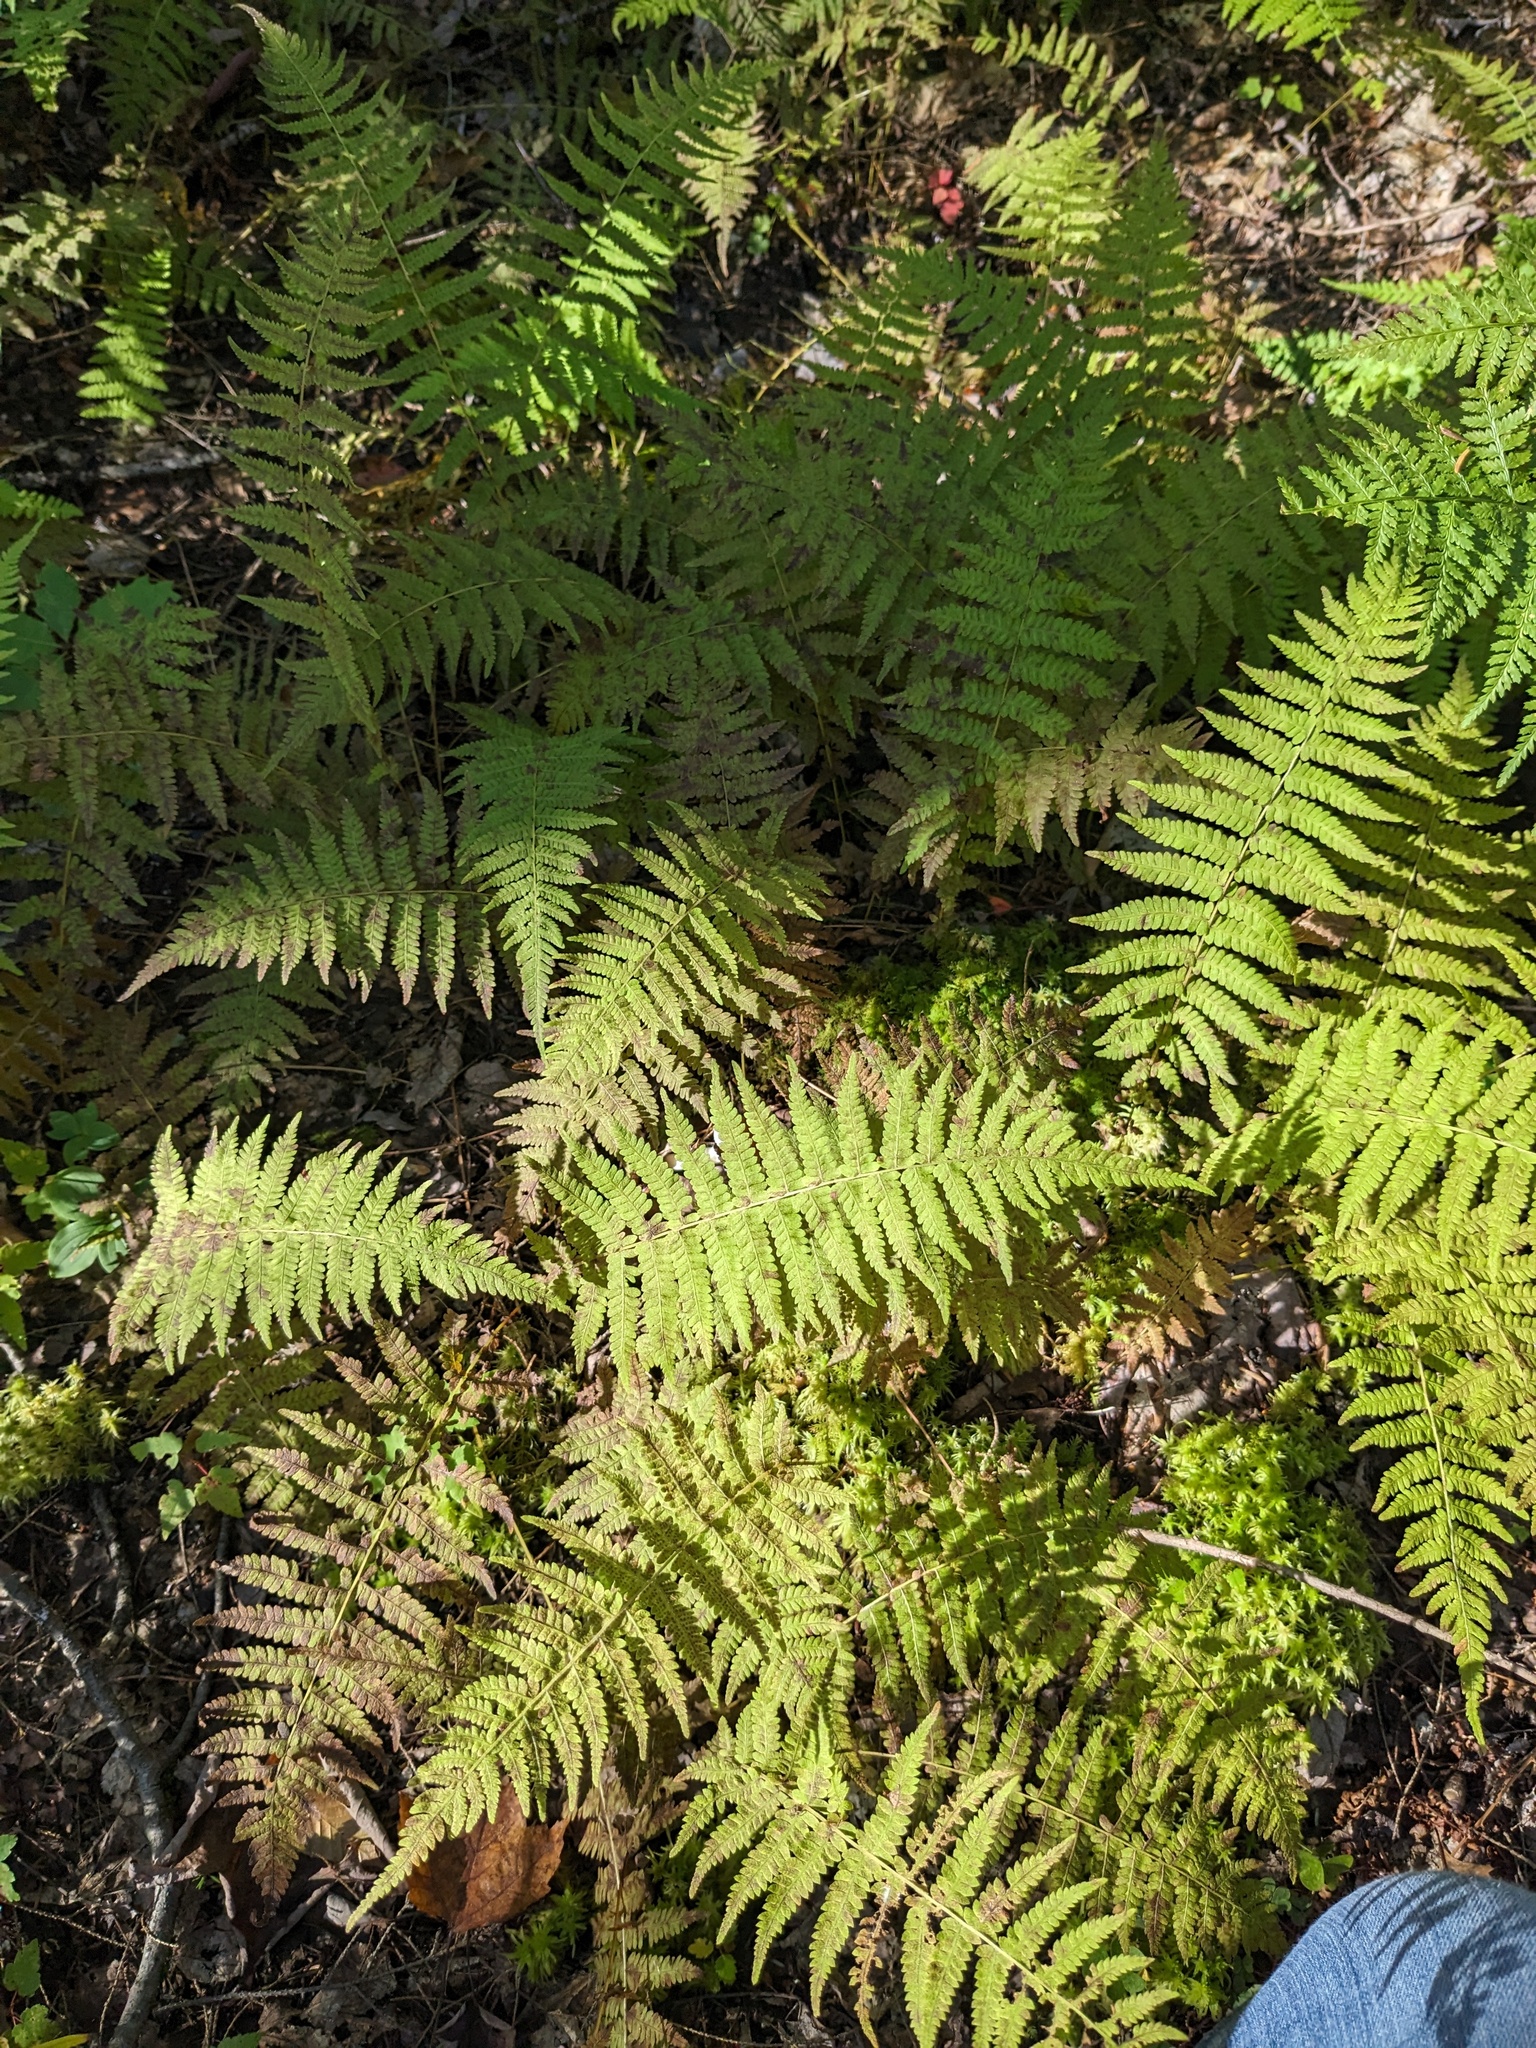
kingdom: Plantae
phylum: Tracheophyta
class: Polypodiopsida
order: Polypodiales
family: Thelypteridaceae
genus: Amauropelta
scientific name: Amauropelta noveboracensis
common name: New york fern
